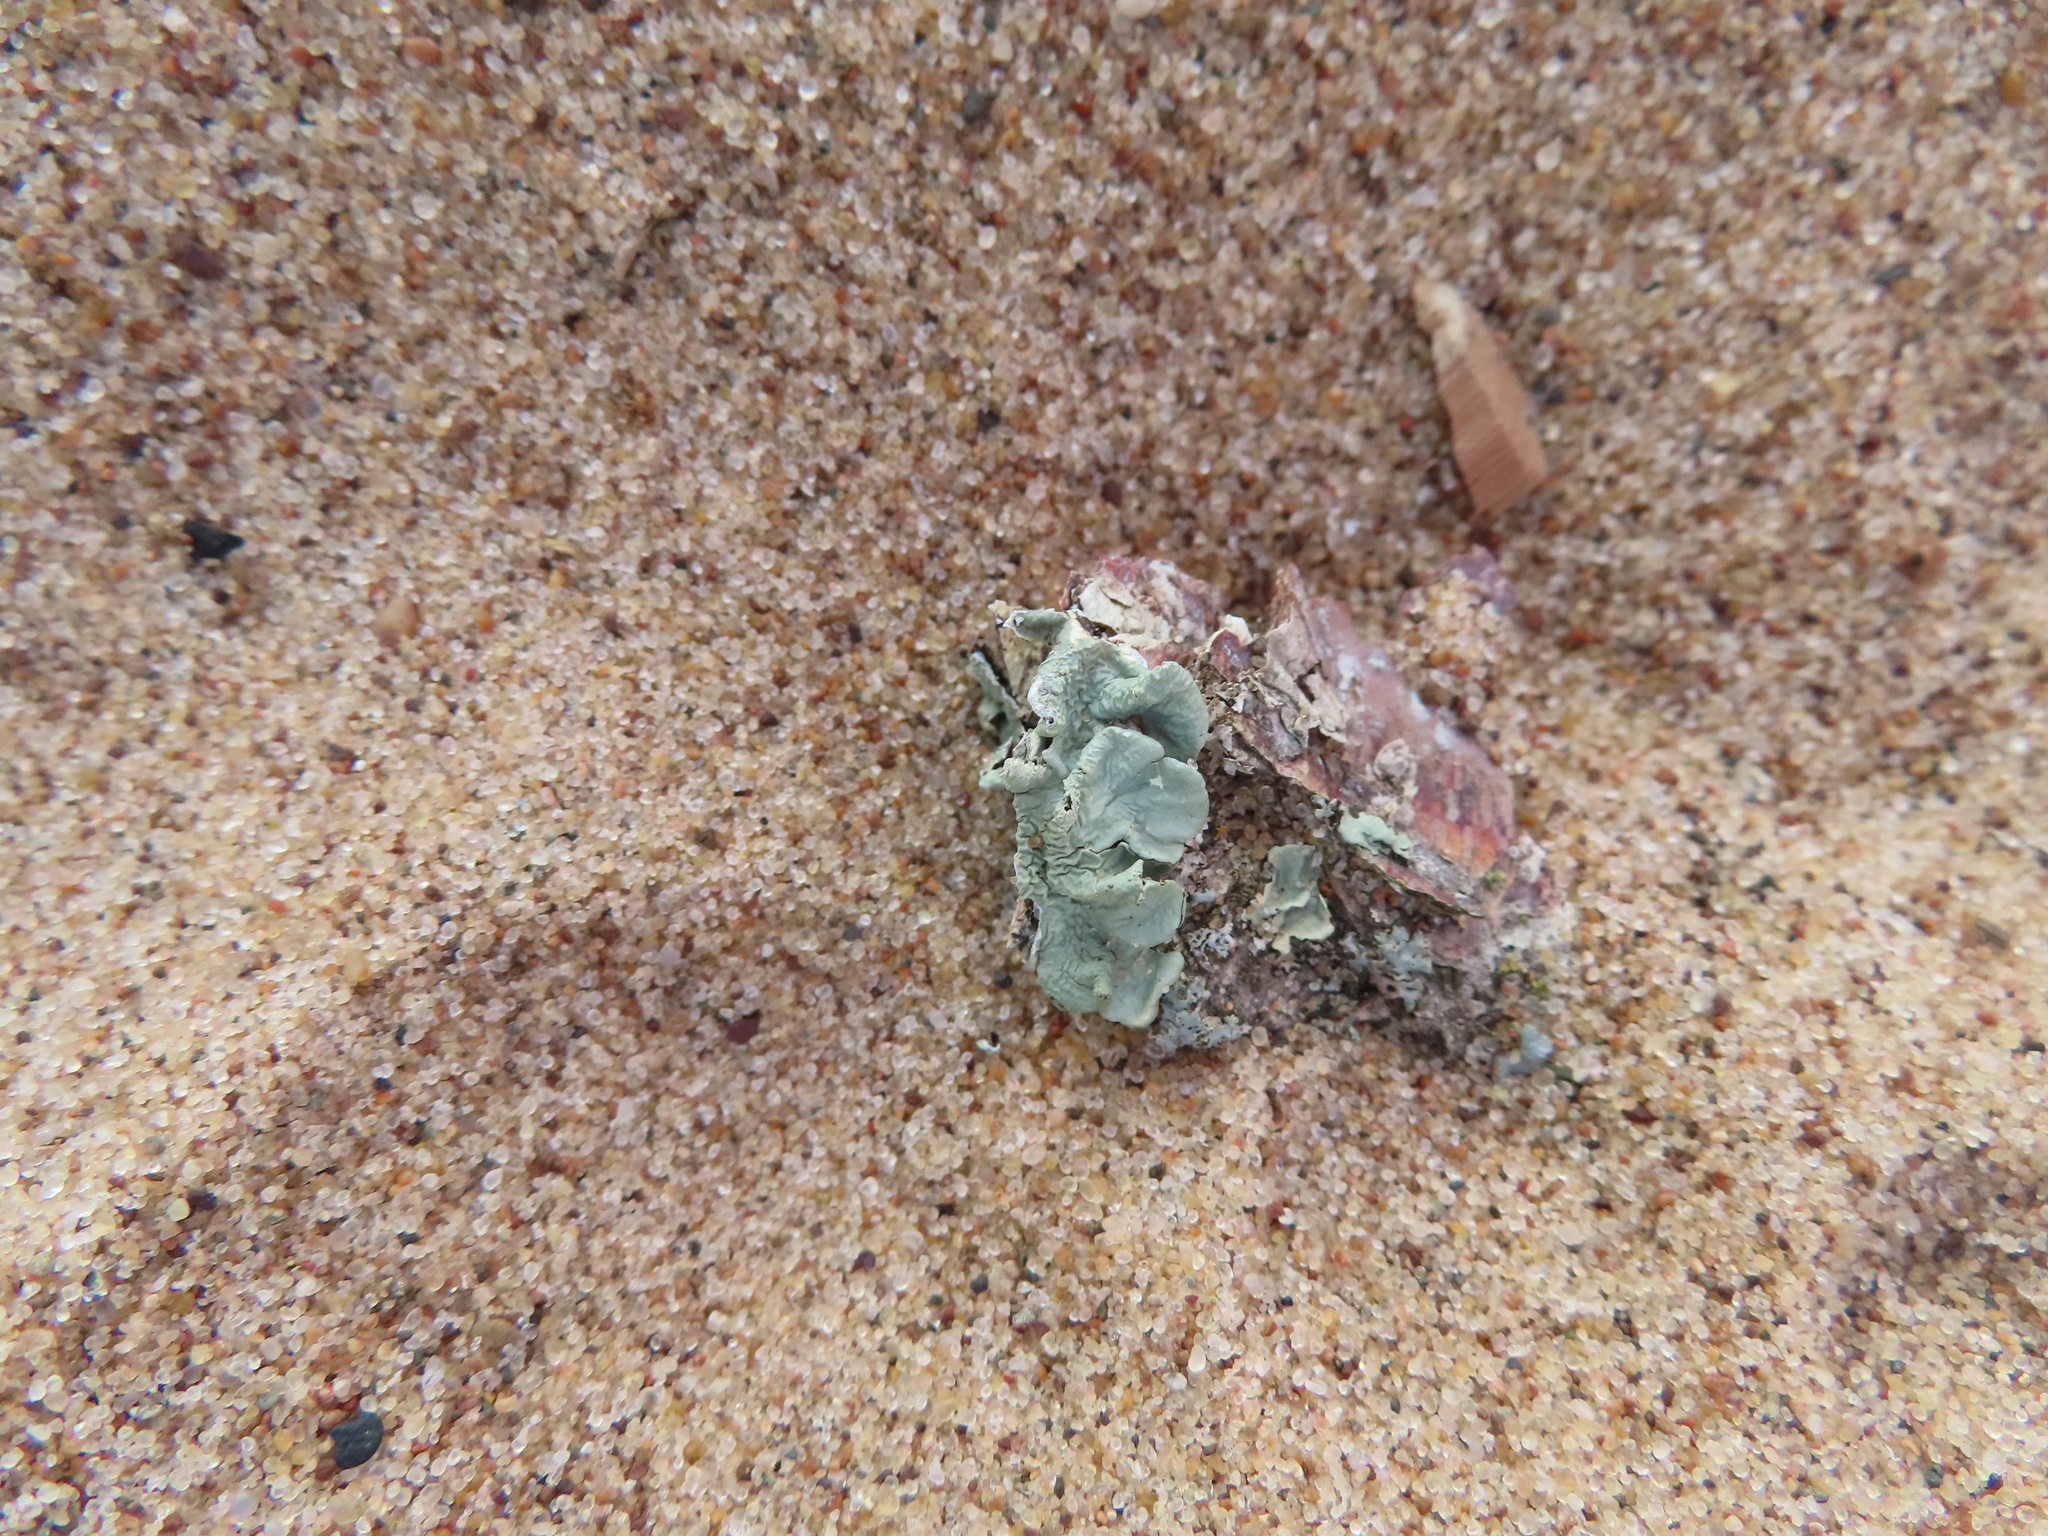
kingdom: Fungi
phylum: Ascomycota
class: Lecanoromycetes
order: Lecanorales
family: Parmeliaceae
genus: Flavoparmelia
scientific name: Flavoparmelia caperata
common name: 40-mile per hour lichen
